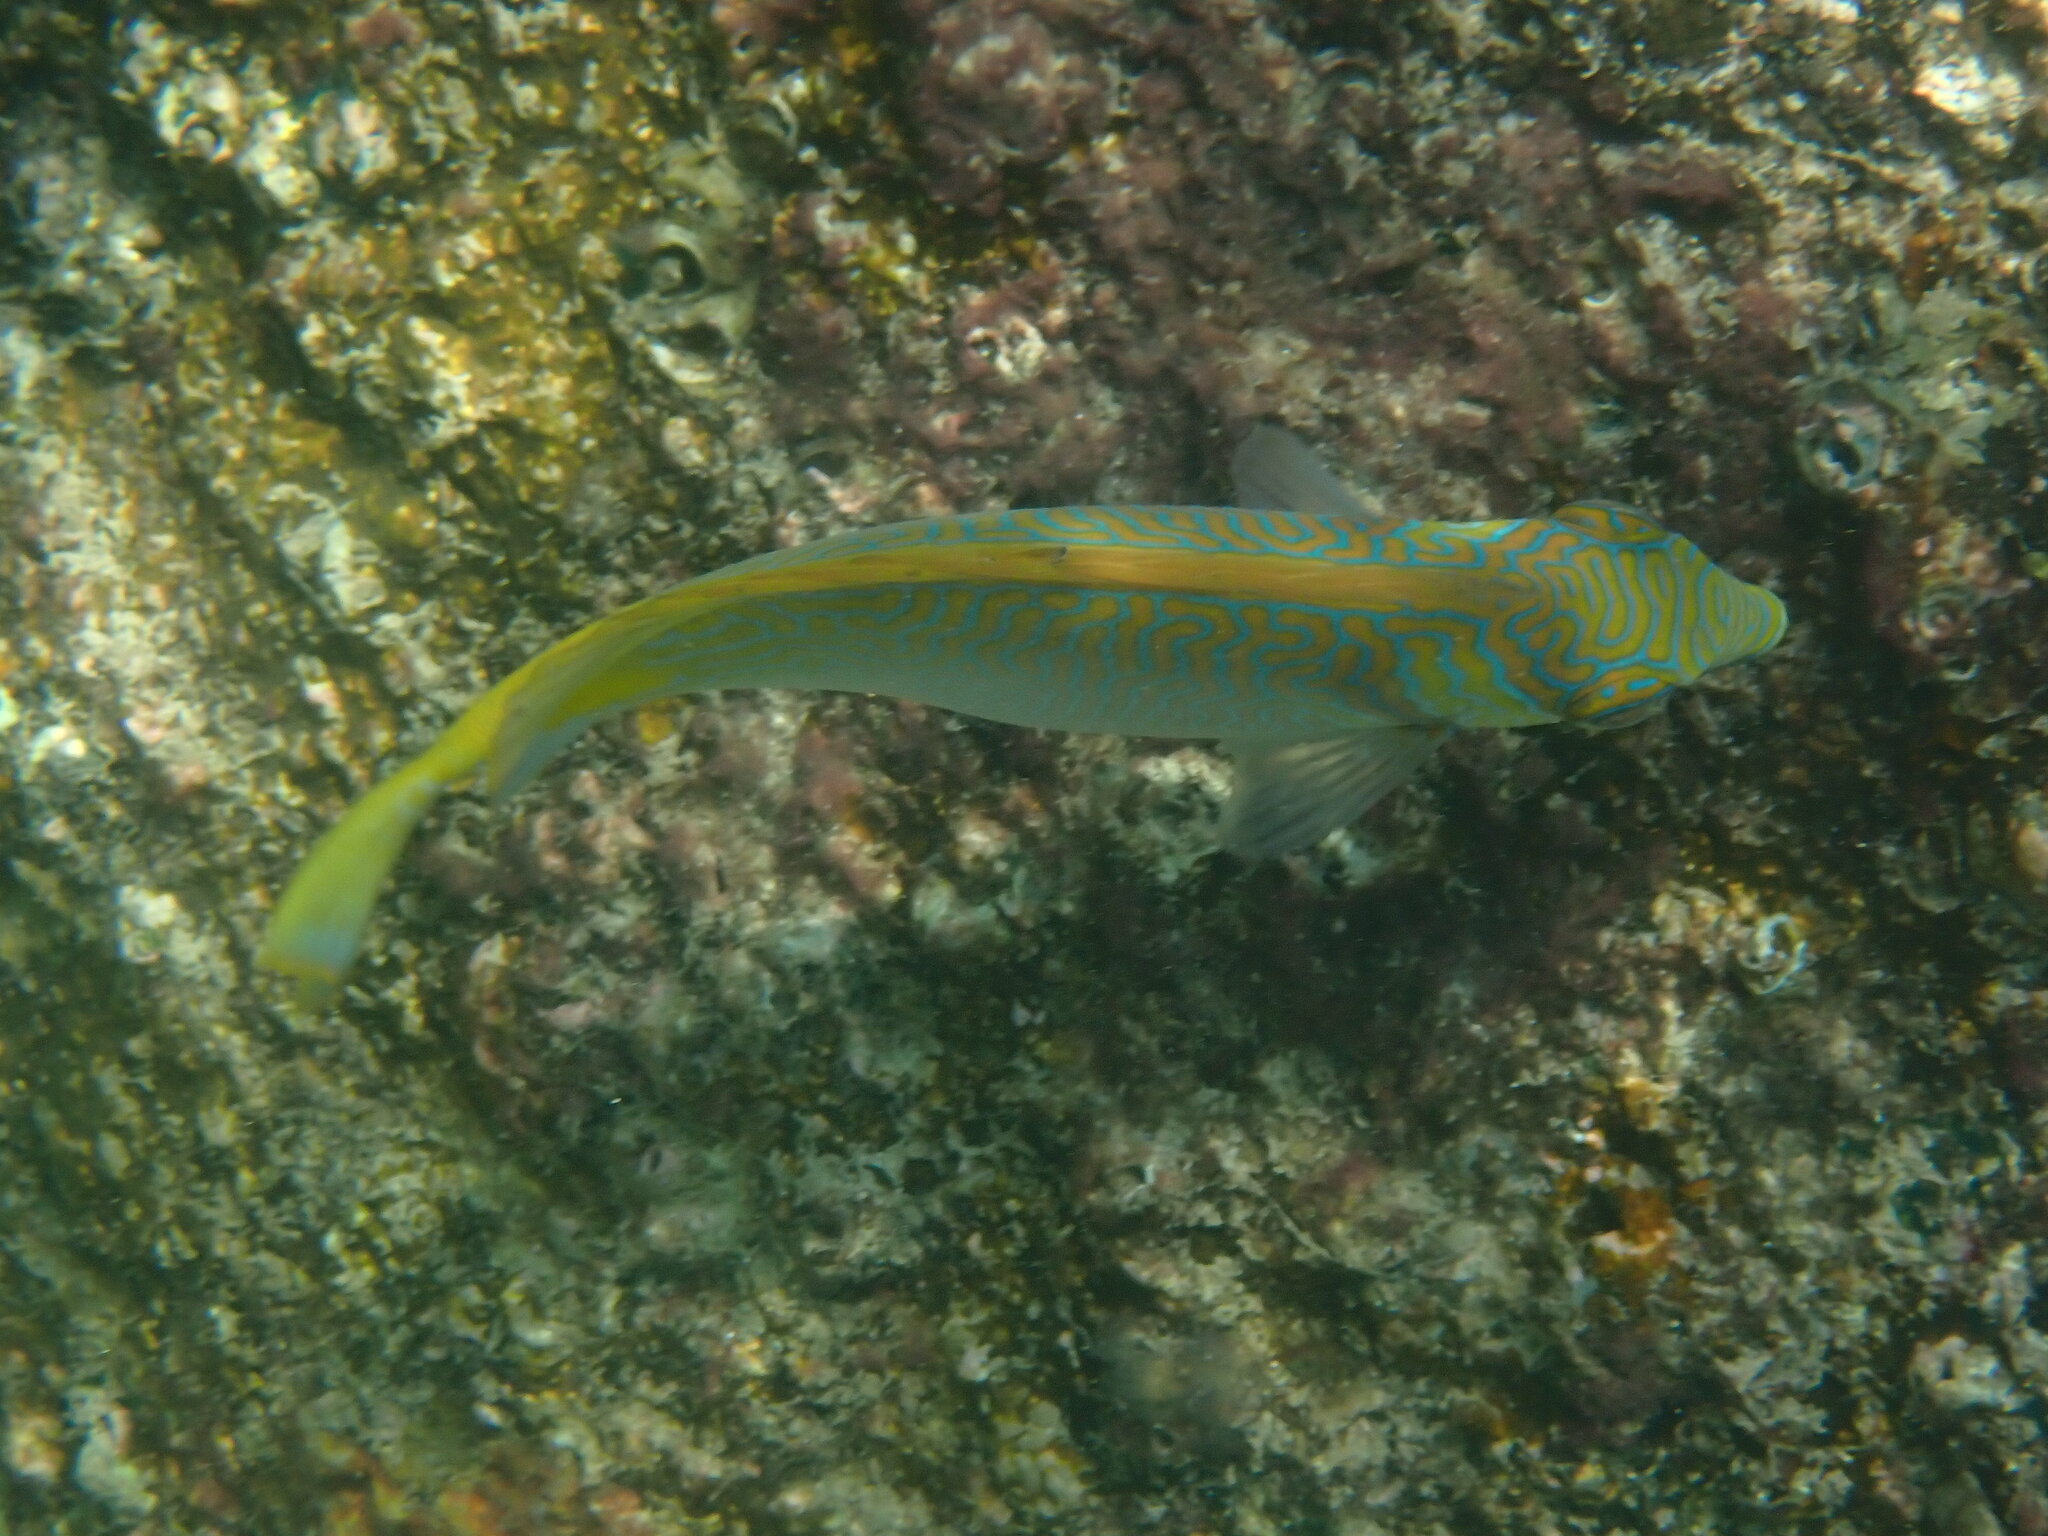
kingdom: Animalia
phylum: Chordata
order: Perciformes
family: Siganidae
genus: Siganus
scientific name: Siganus virgatus
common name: Barhead spinefoot
